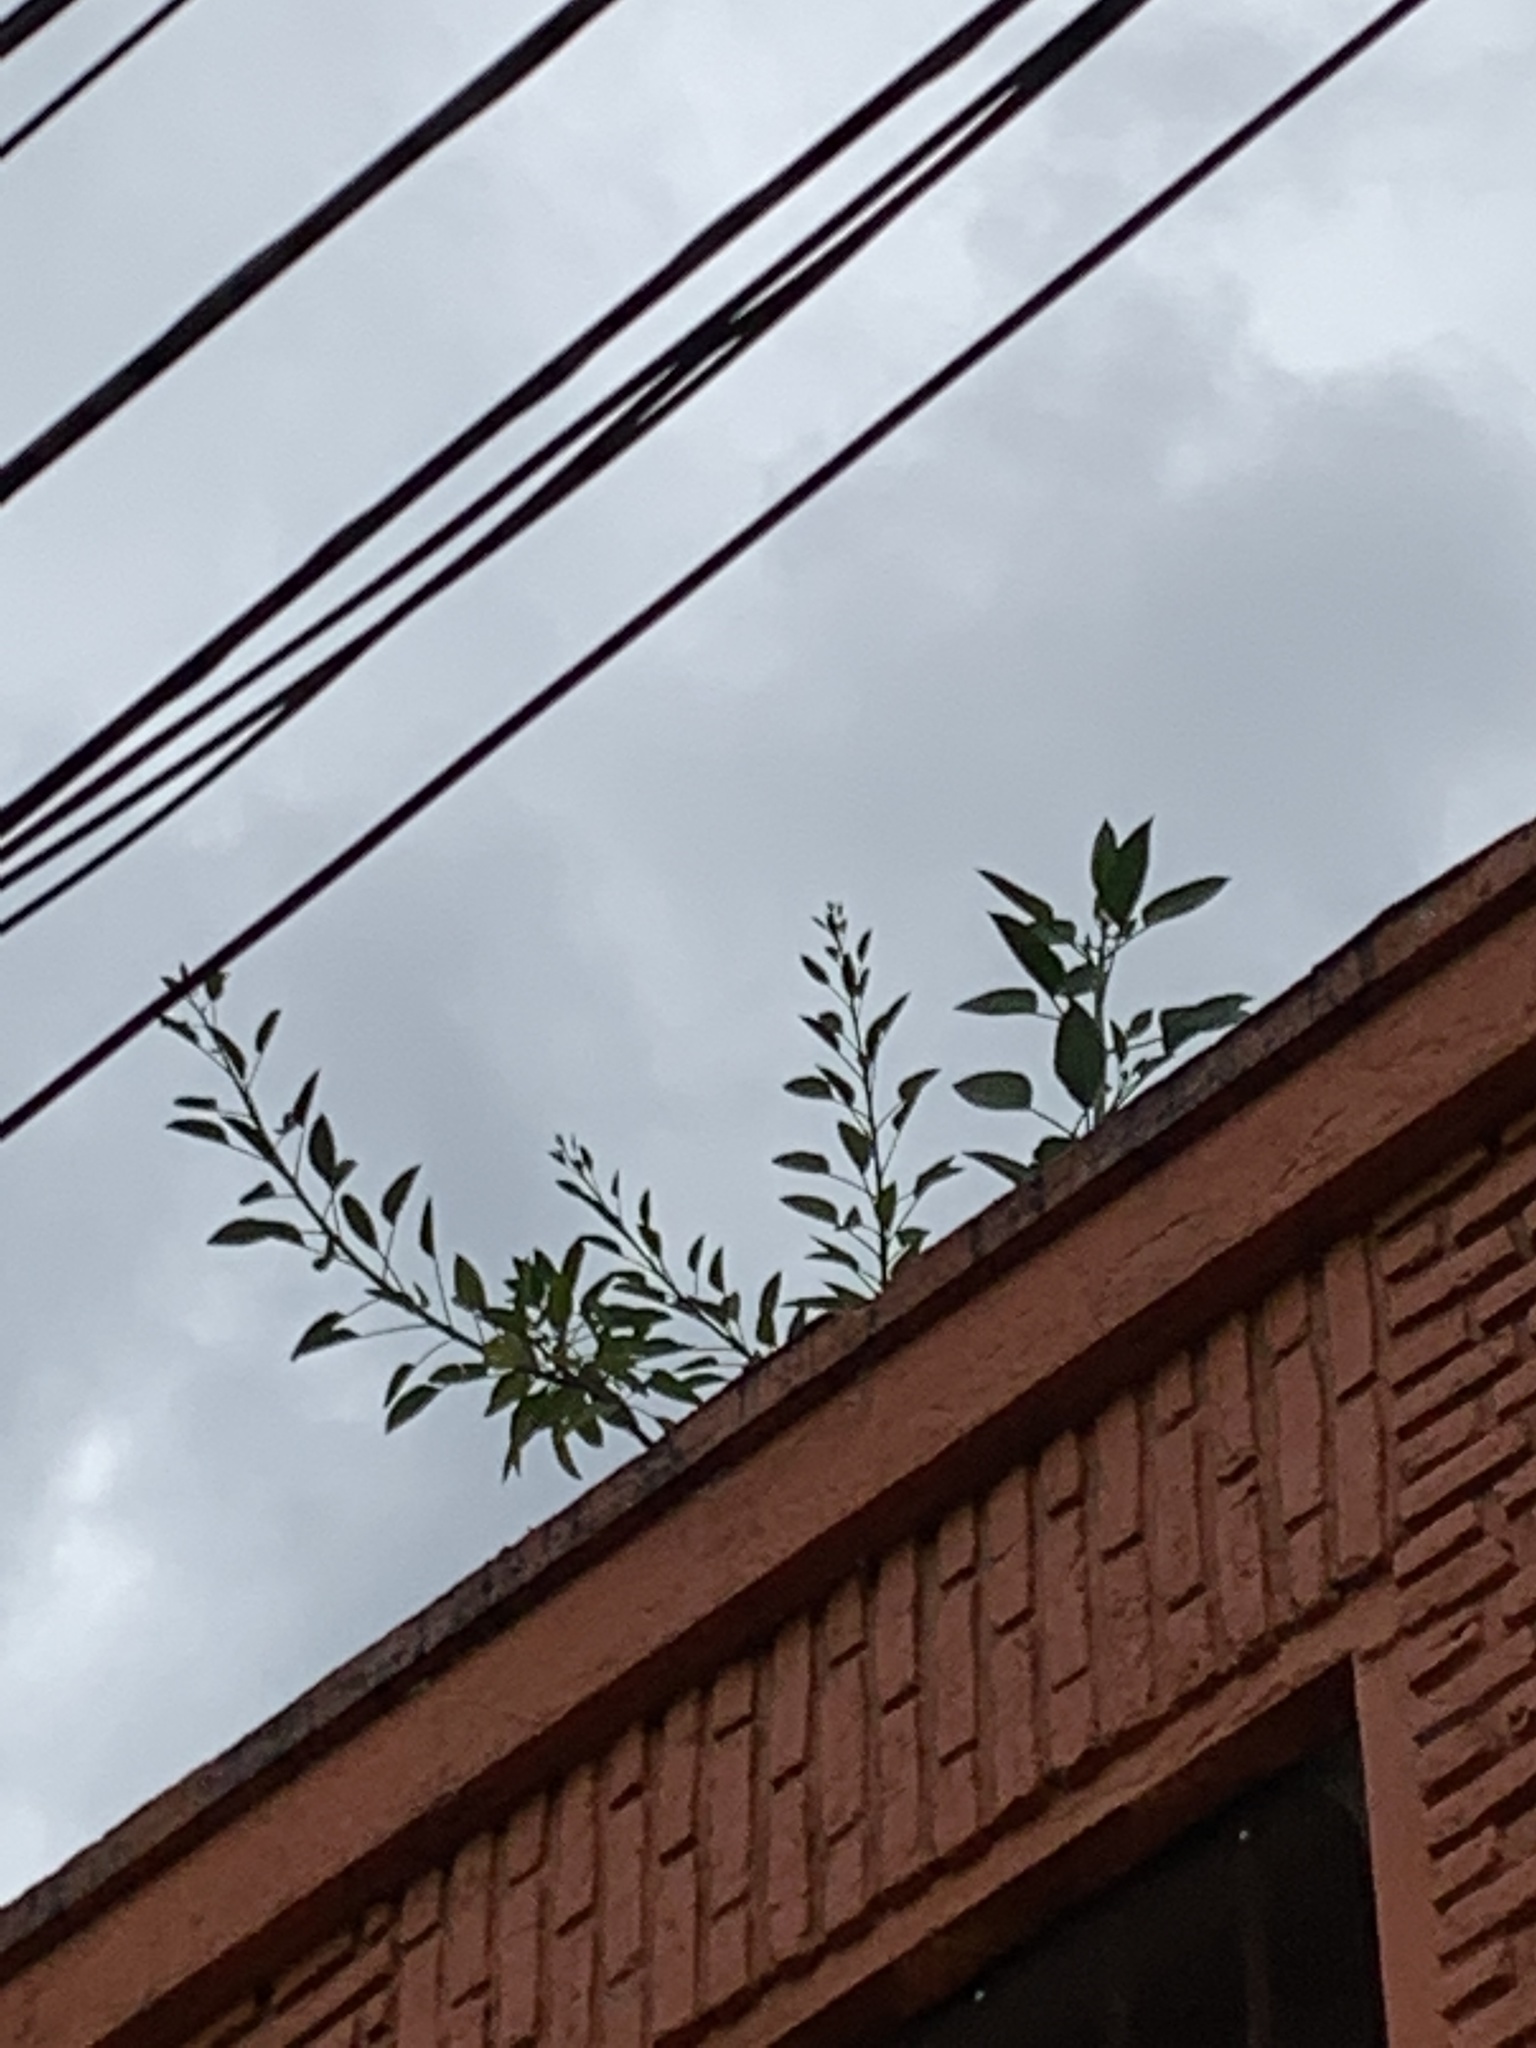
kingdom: Plantae
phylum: Tracheophyta
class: Magnoliopsida
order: Solanales
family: Solanaceae
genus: Nicotiana
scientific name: Nicotiana glauca
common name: Tree tobacco
